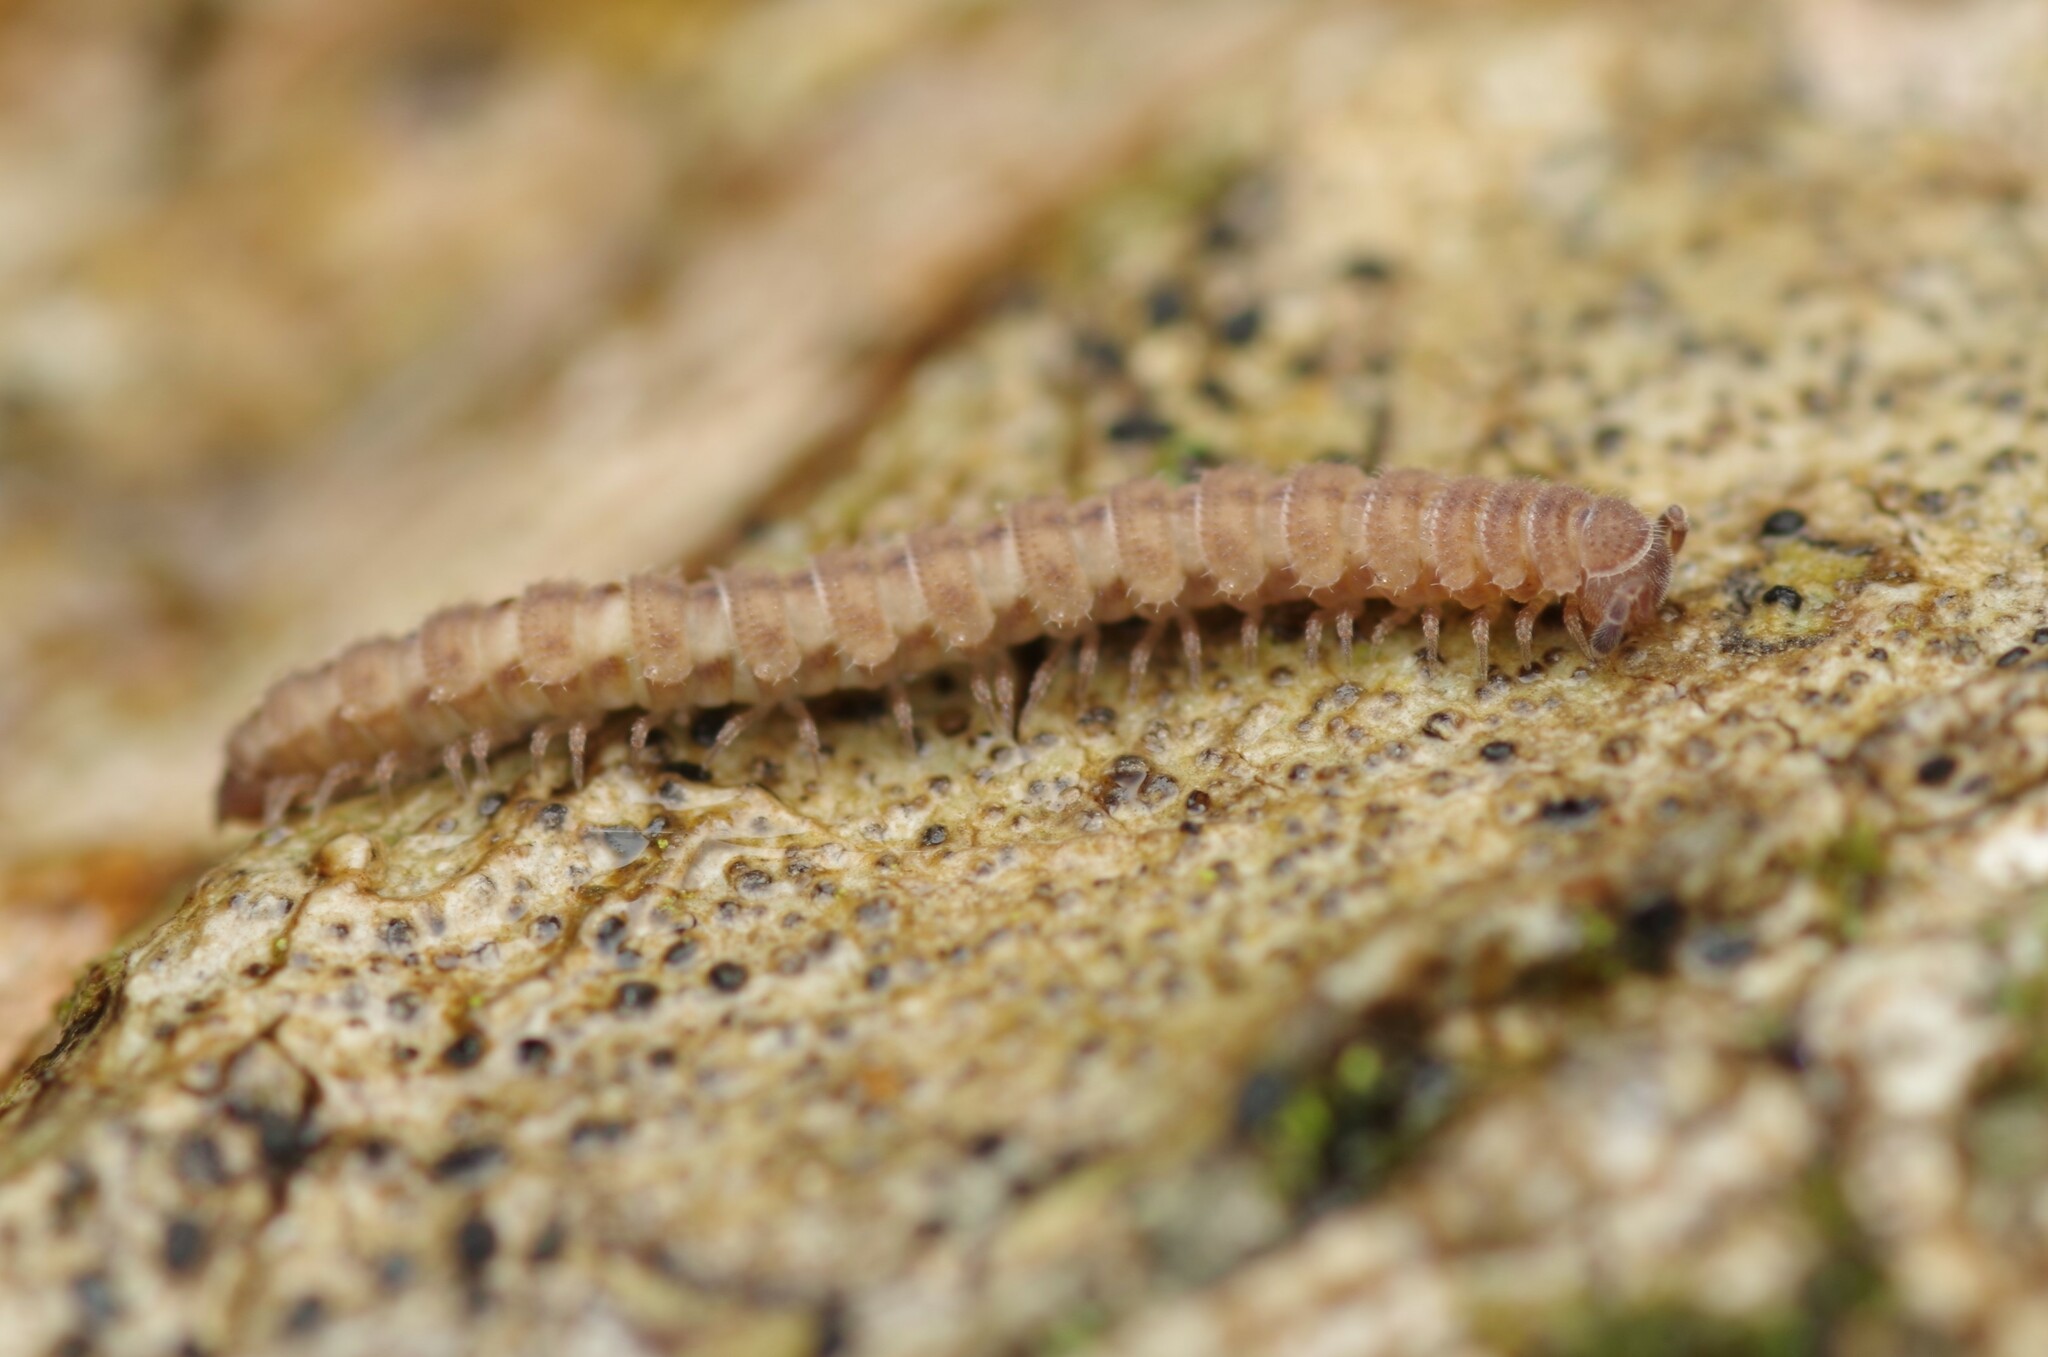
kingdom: Animalia
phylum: Arthropoda
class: Diplopoda
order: Polydesmida
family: Polydesmidae
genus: Archipolydesmus
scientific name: Archipolydesmus ribauti
